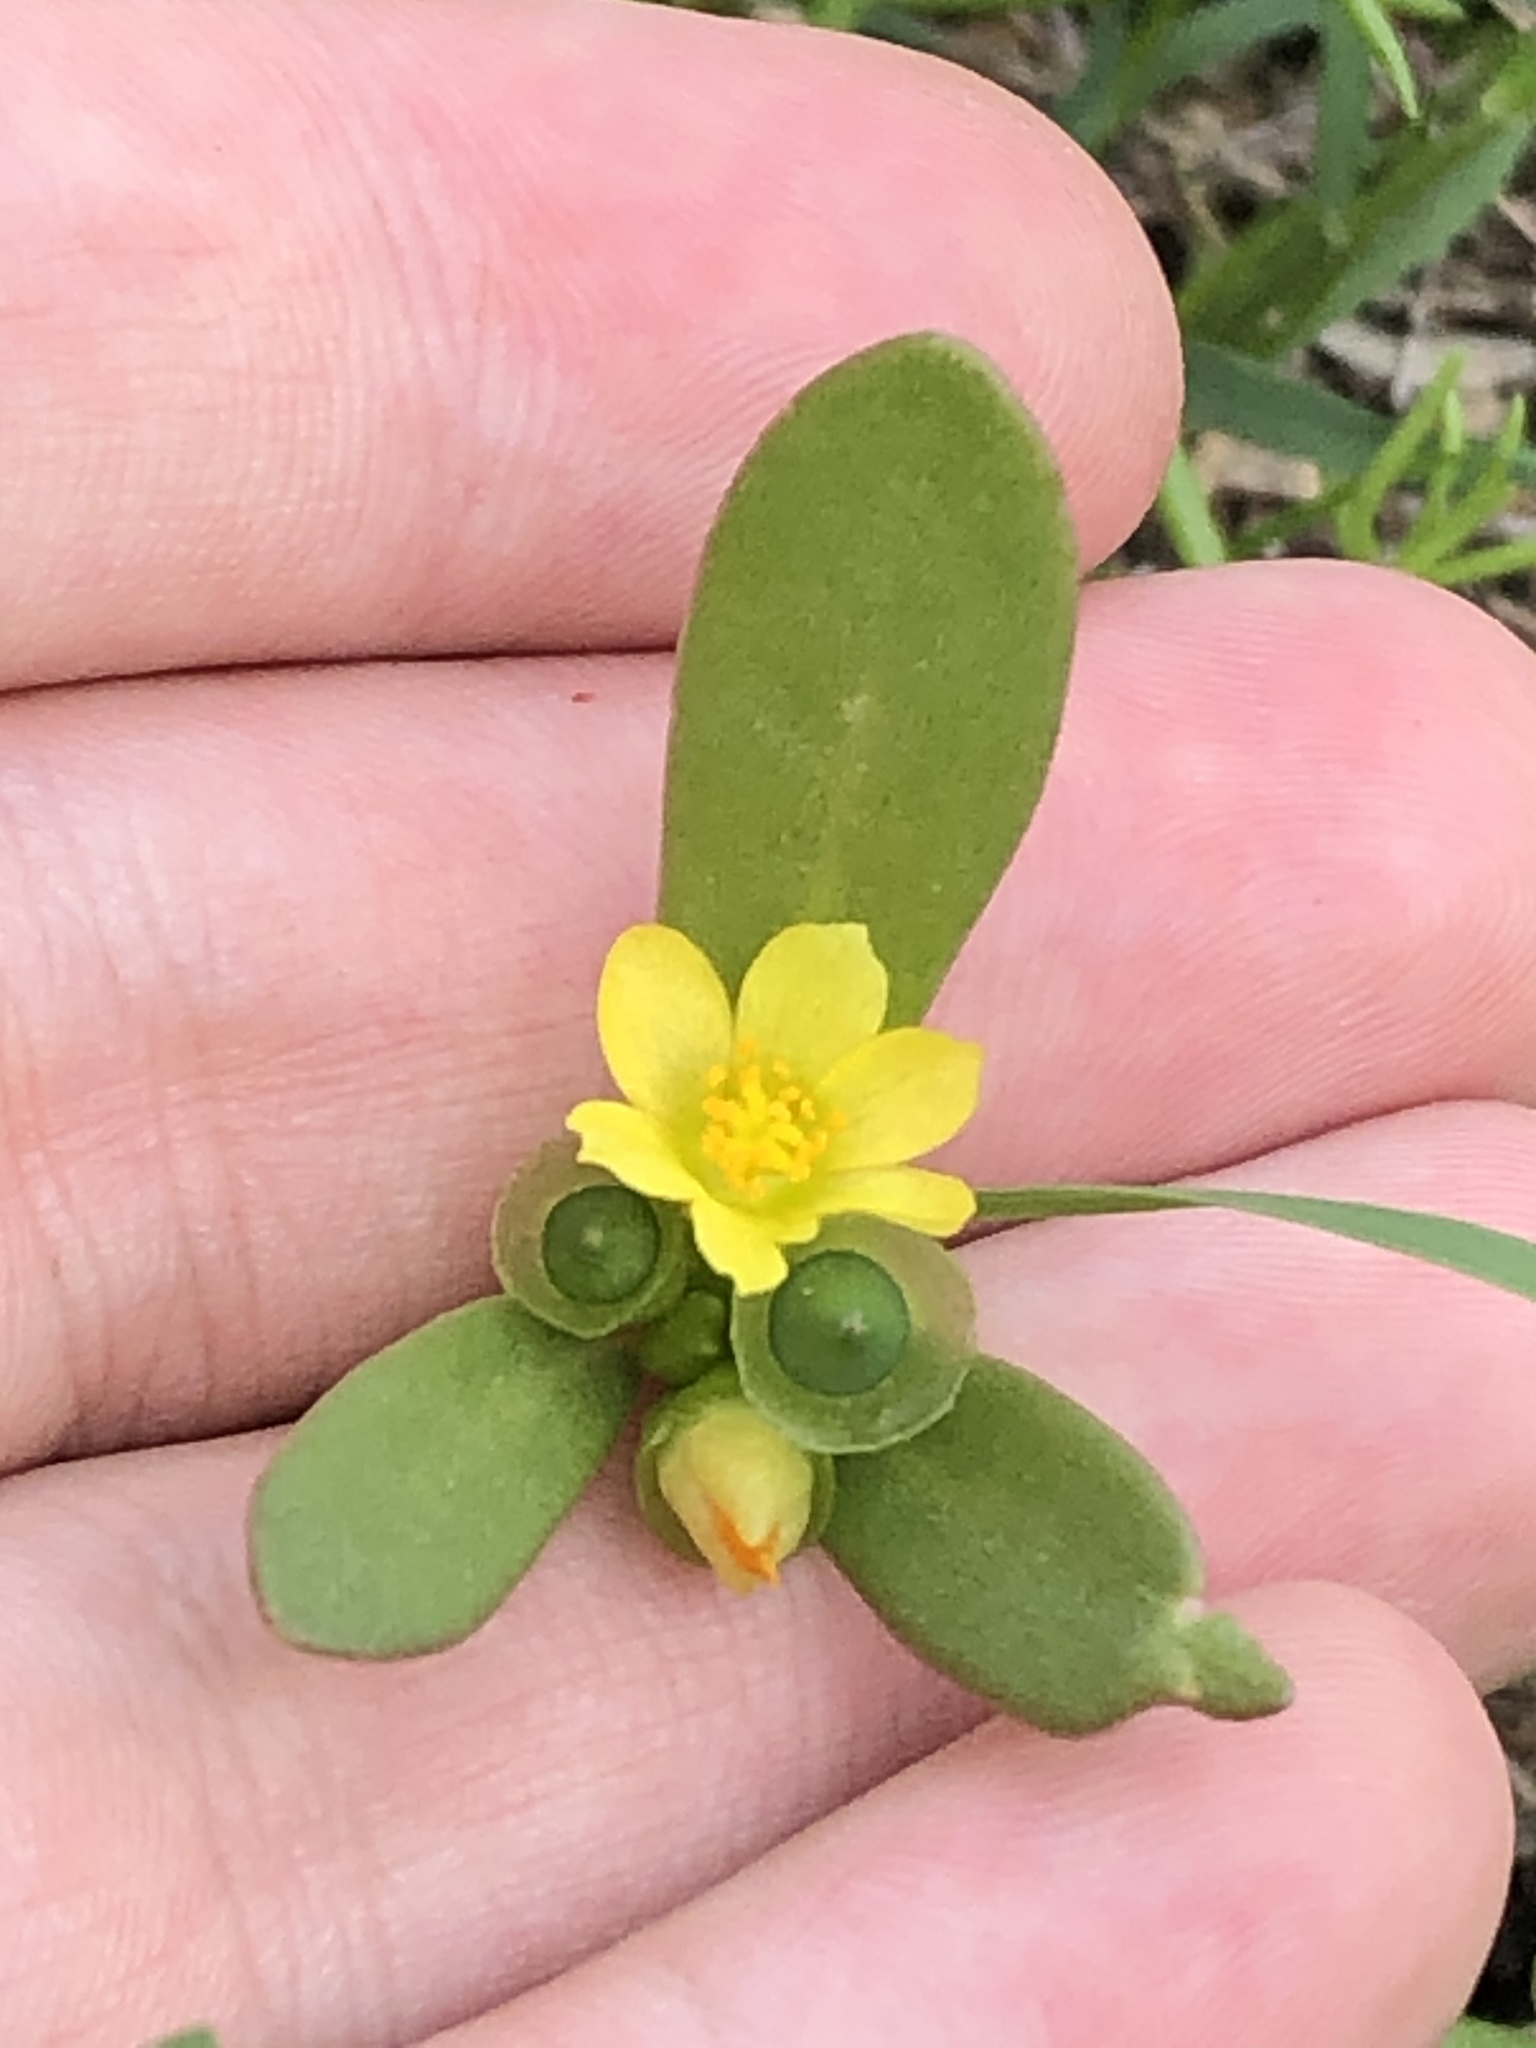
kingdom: Plantae
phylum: Tracheophyta
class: Magnoliopsida
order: Caryophyllales
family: Portulacaceae
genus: Portulaca
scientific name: Portulaca umbraticola
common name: Wingpod purslane
